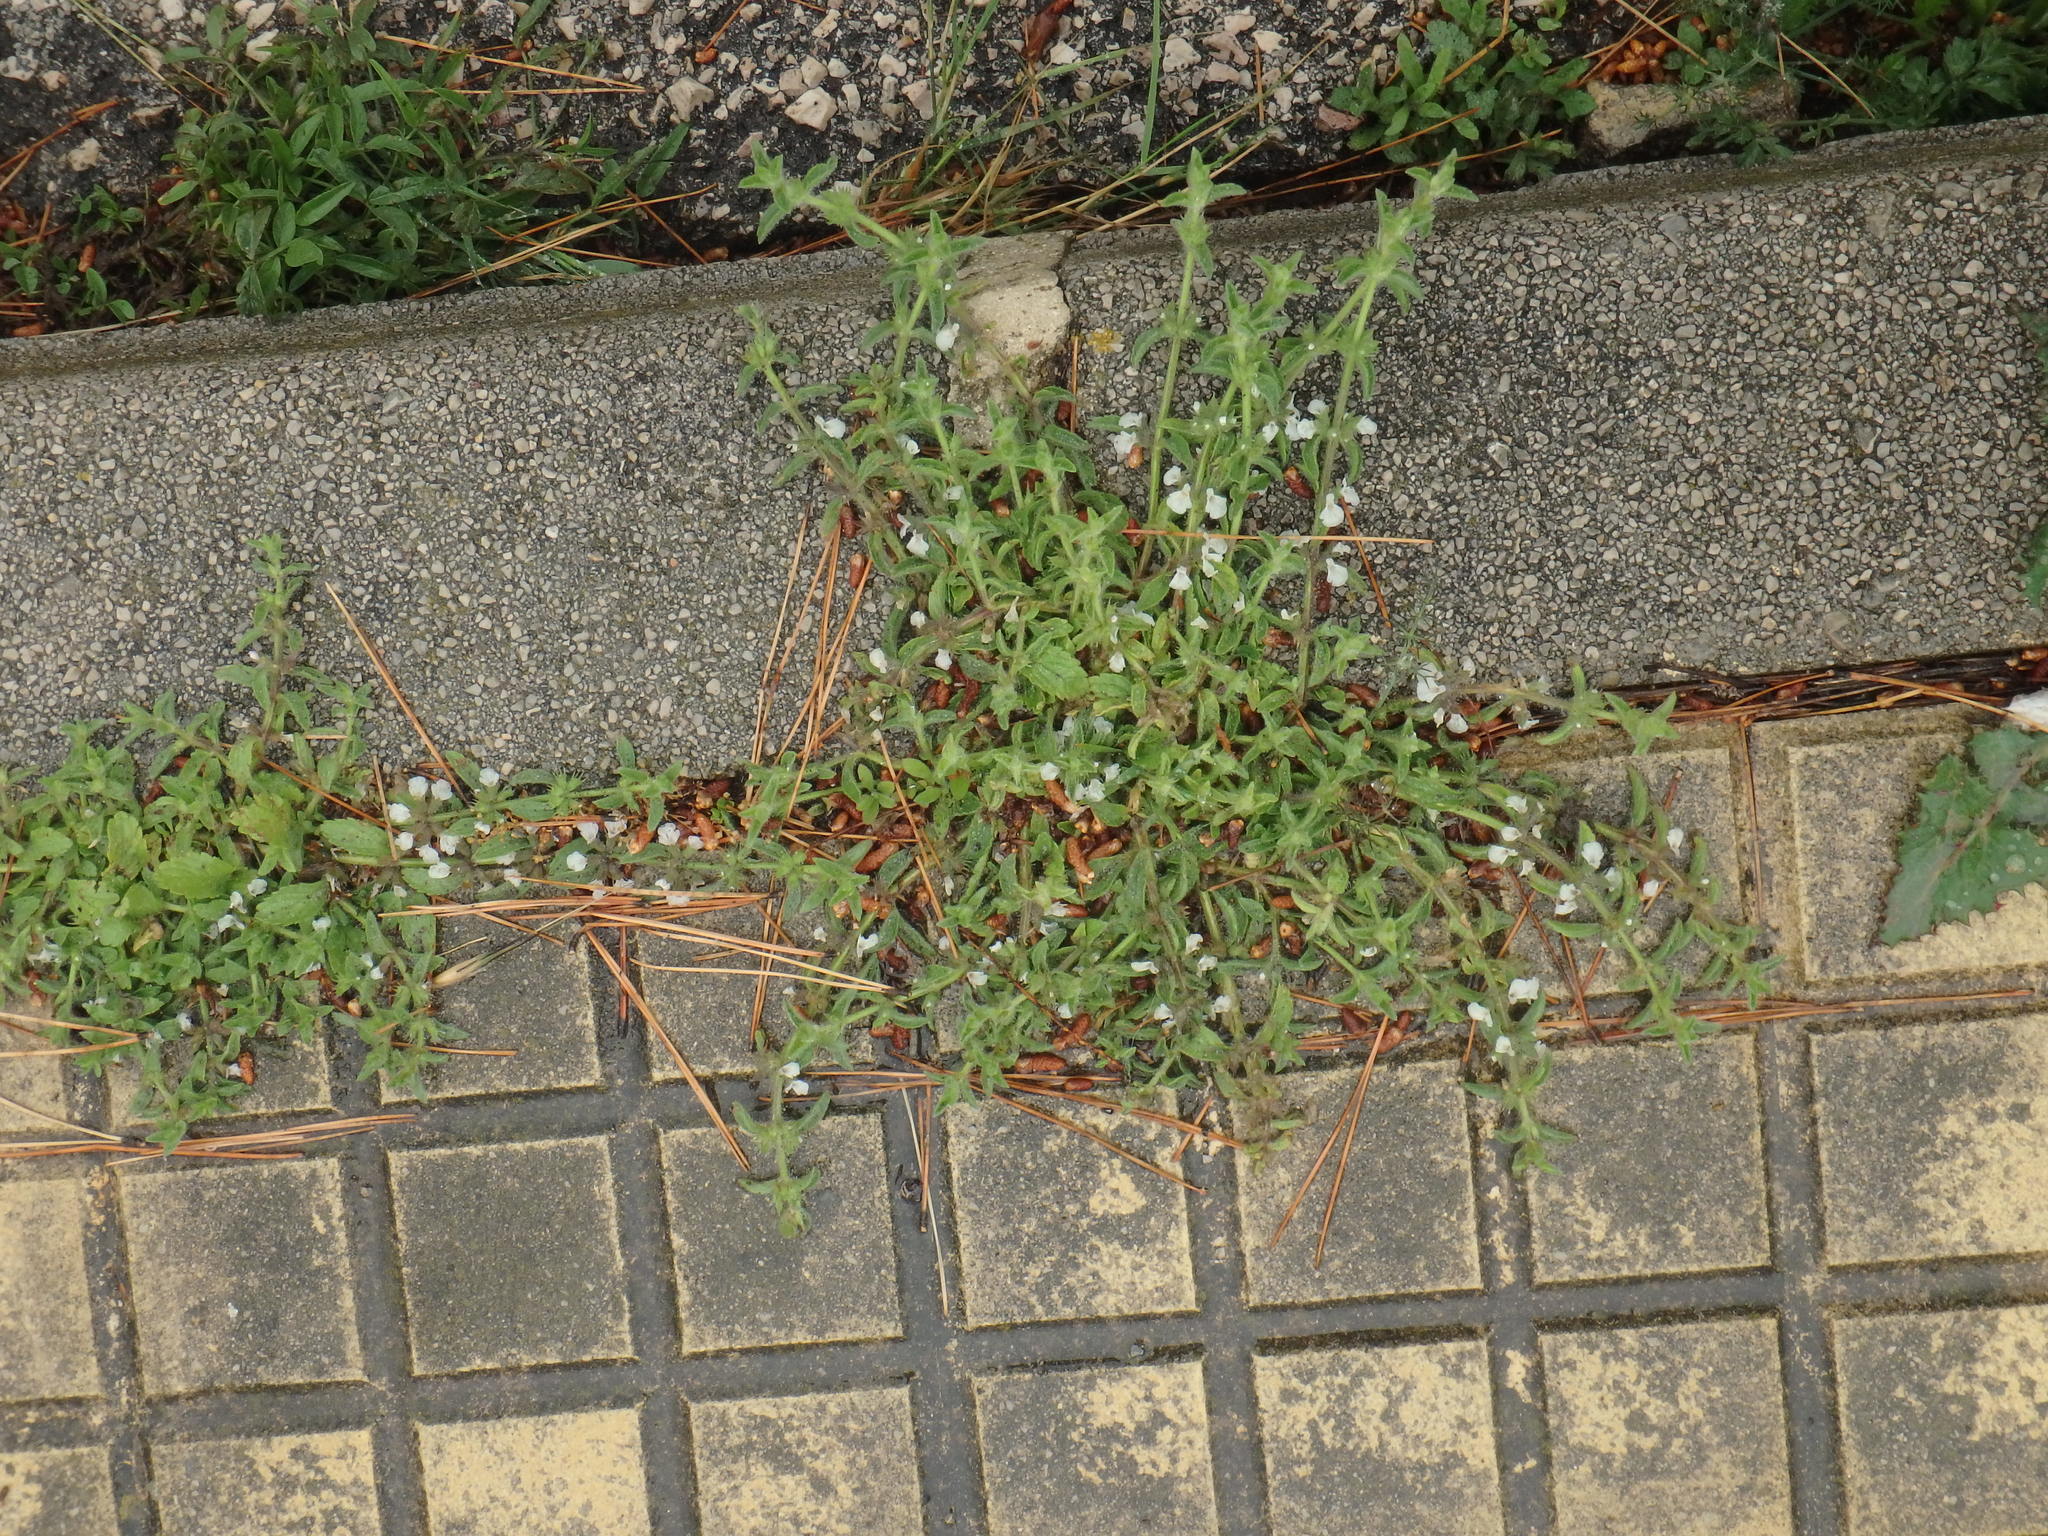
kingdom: Plantae
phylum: Tracheophyta
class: Magnoliopsida
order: Lamiales
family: Lamiaceae
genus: Sideritis
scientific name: Sideritis romana
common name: Simplebeak ironwort
